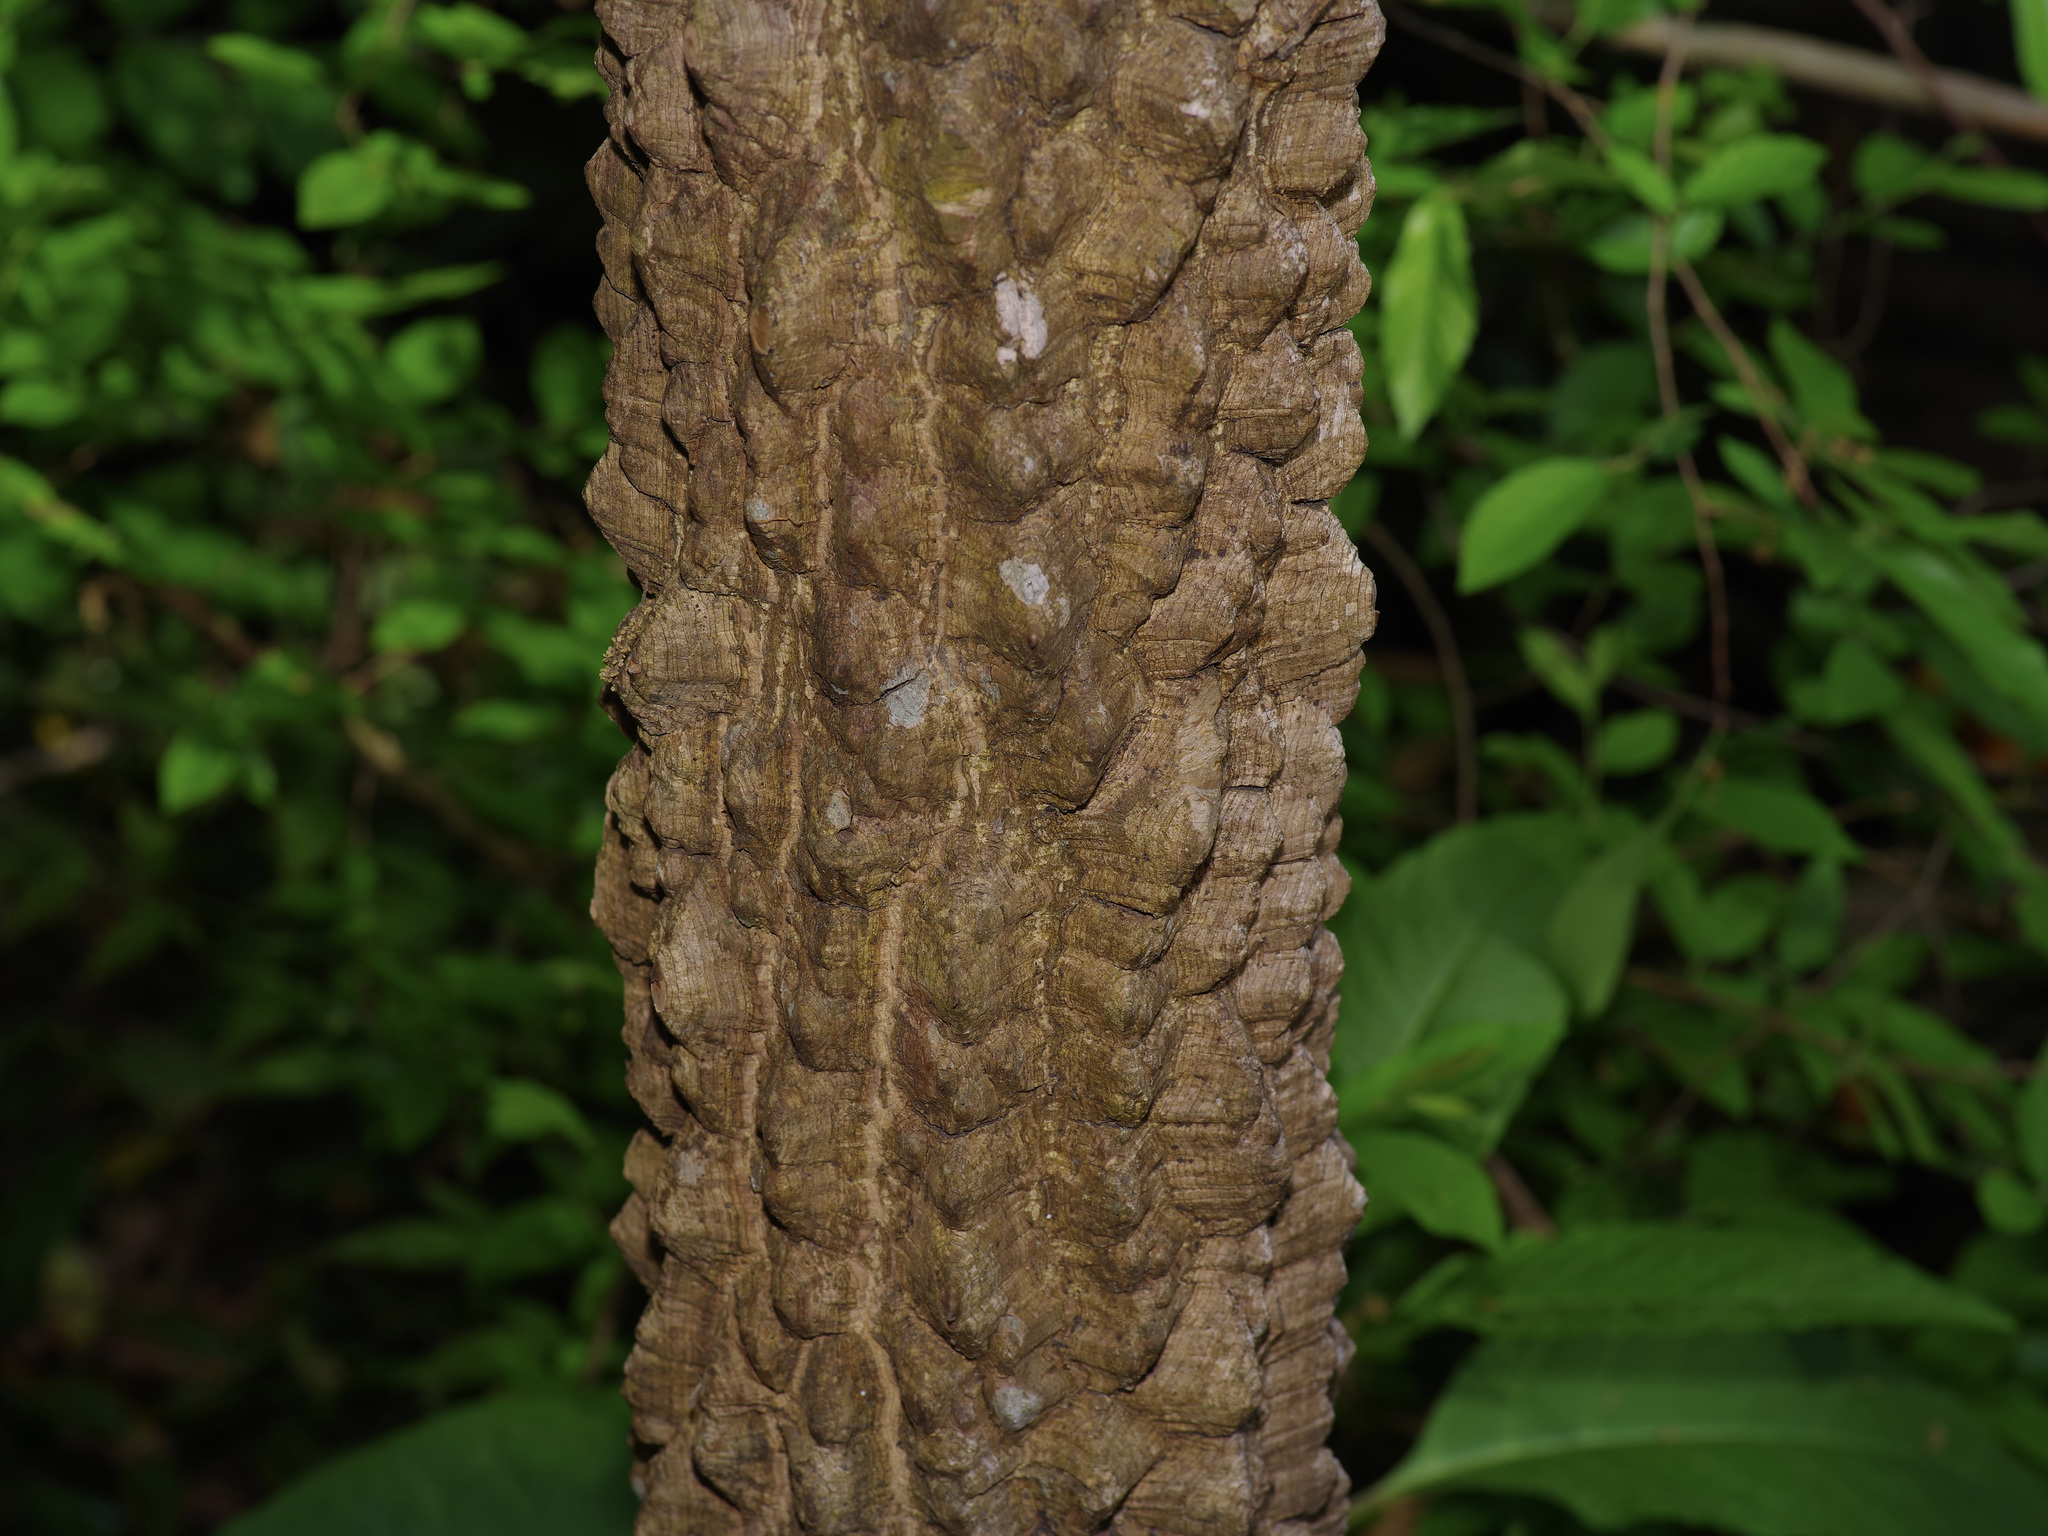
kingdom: Plantae
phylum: Tracheophyta
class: Magnoliopsida
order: Sapindales
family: Rutaceae
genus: Zanthoxylum
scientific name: Zanthoxylum clava-herculis
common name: Hercules'-club
